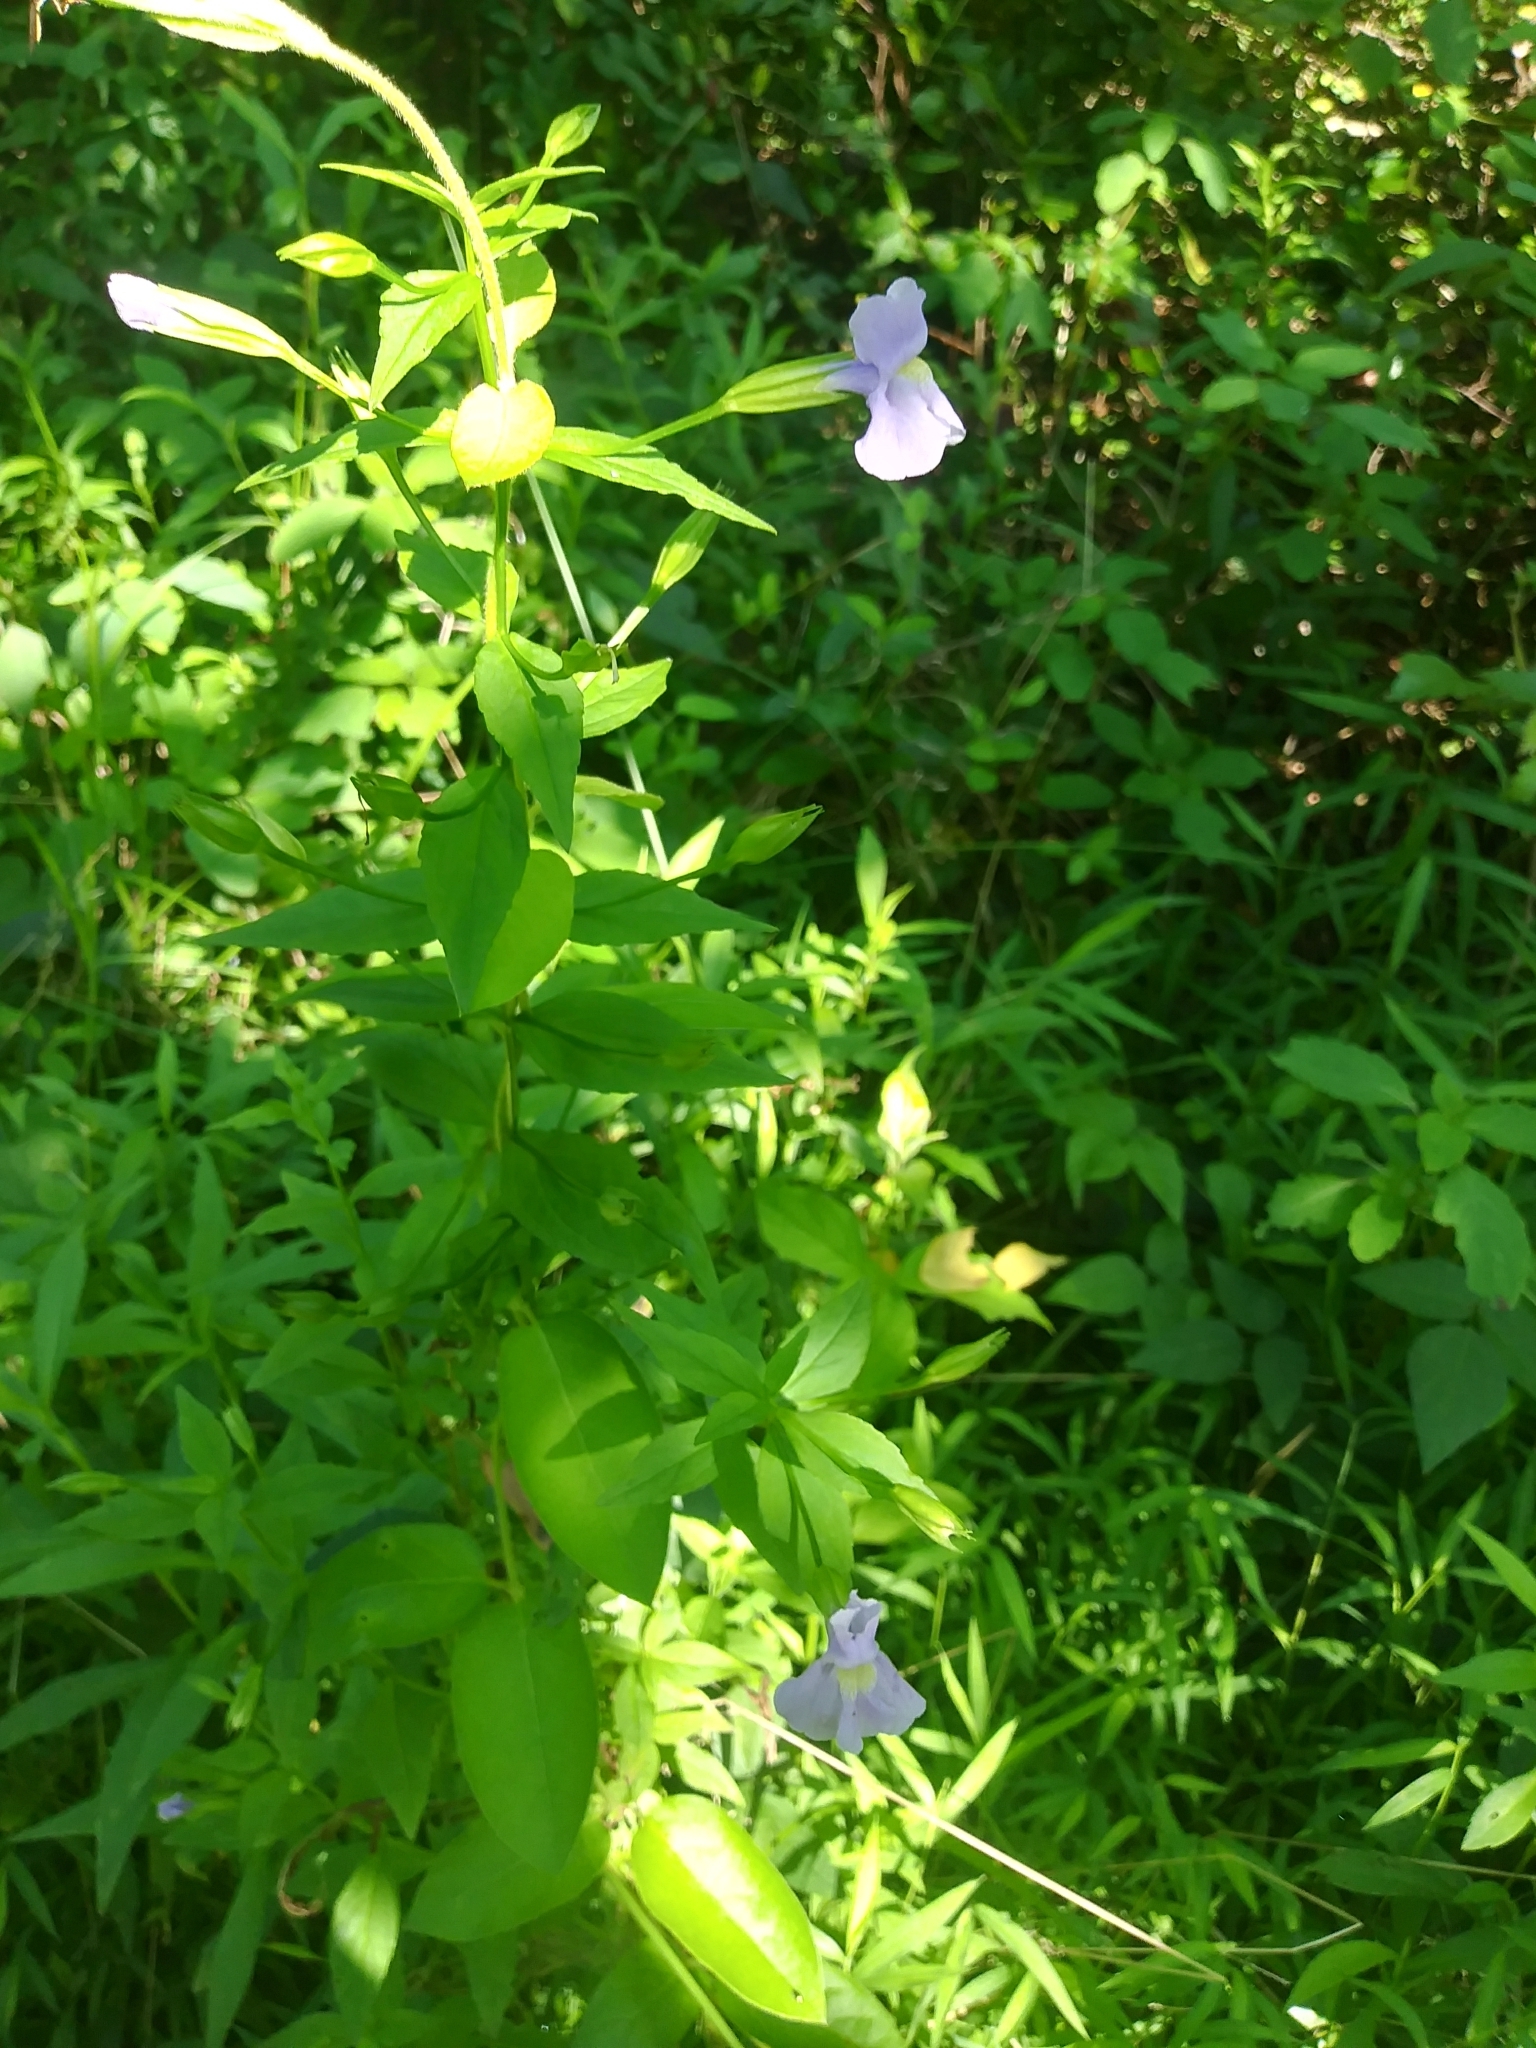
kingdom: Plantae
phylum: Tracheophyta
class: Magnoliopsida
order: Lamiales
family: Phrymaceae
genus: Mimulus
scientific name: Mimulus ringens
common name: Allegheny monkeyflower
